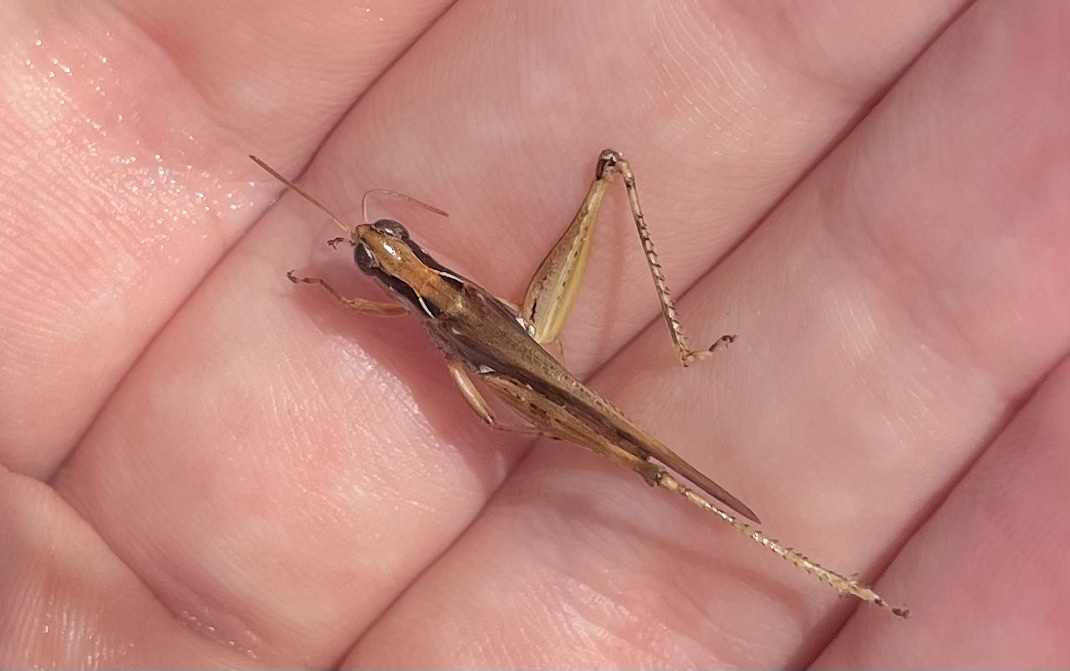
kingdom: Animalia
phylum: Arthropoda
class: Insecta
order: Orthoptera
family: Acrididae
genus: Orphulella
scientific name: Orphulella pelidna
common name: Spotted-wing grasshopper
